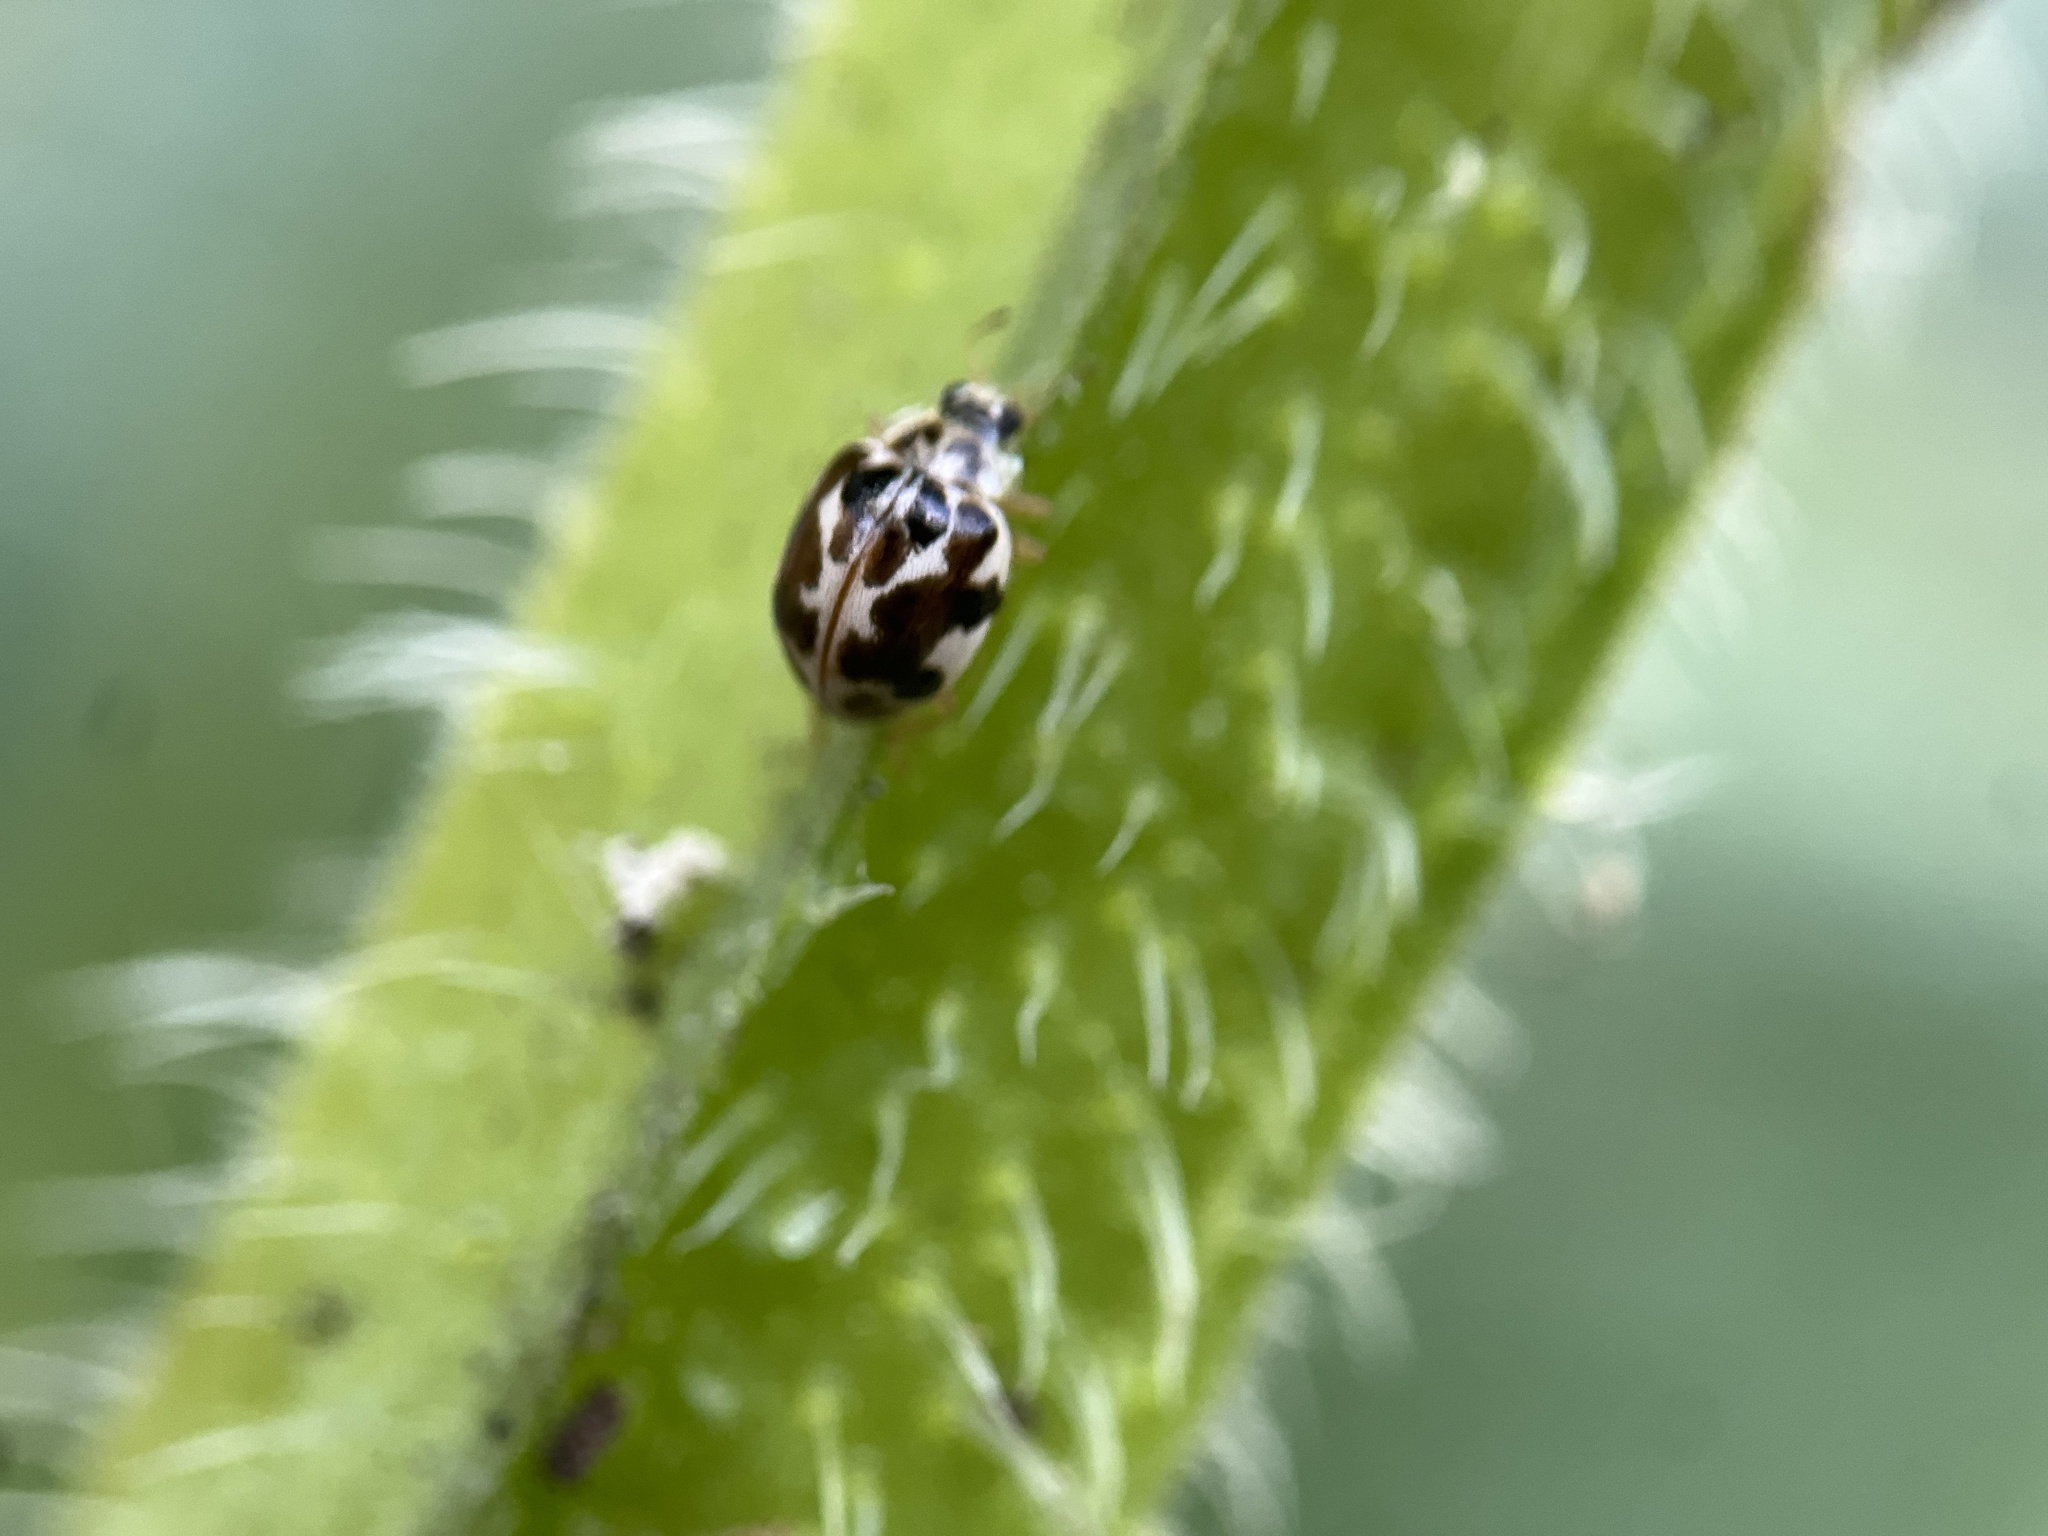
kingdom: Animalia
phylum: Arthropoda
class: Insecta
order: Coleoptera
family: Coccinellidae
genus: Psyllobora
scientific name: Psyllobora vigintimaculata
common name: Ladybird beetle
